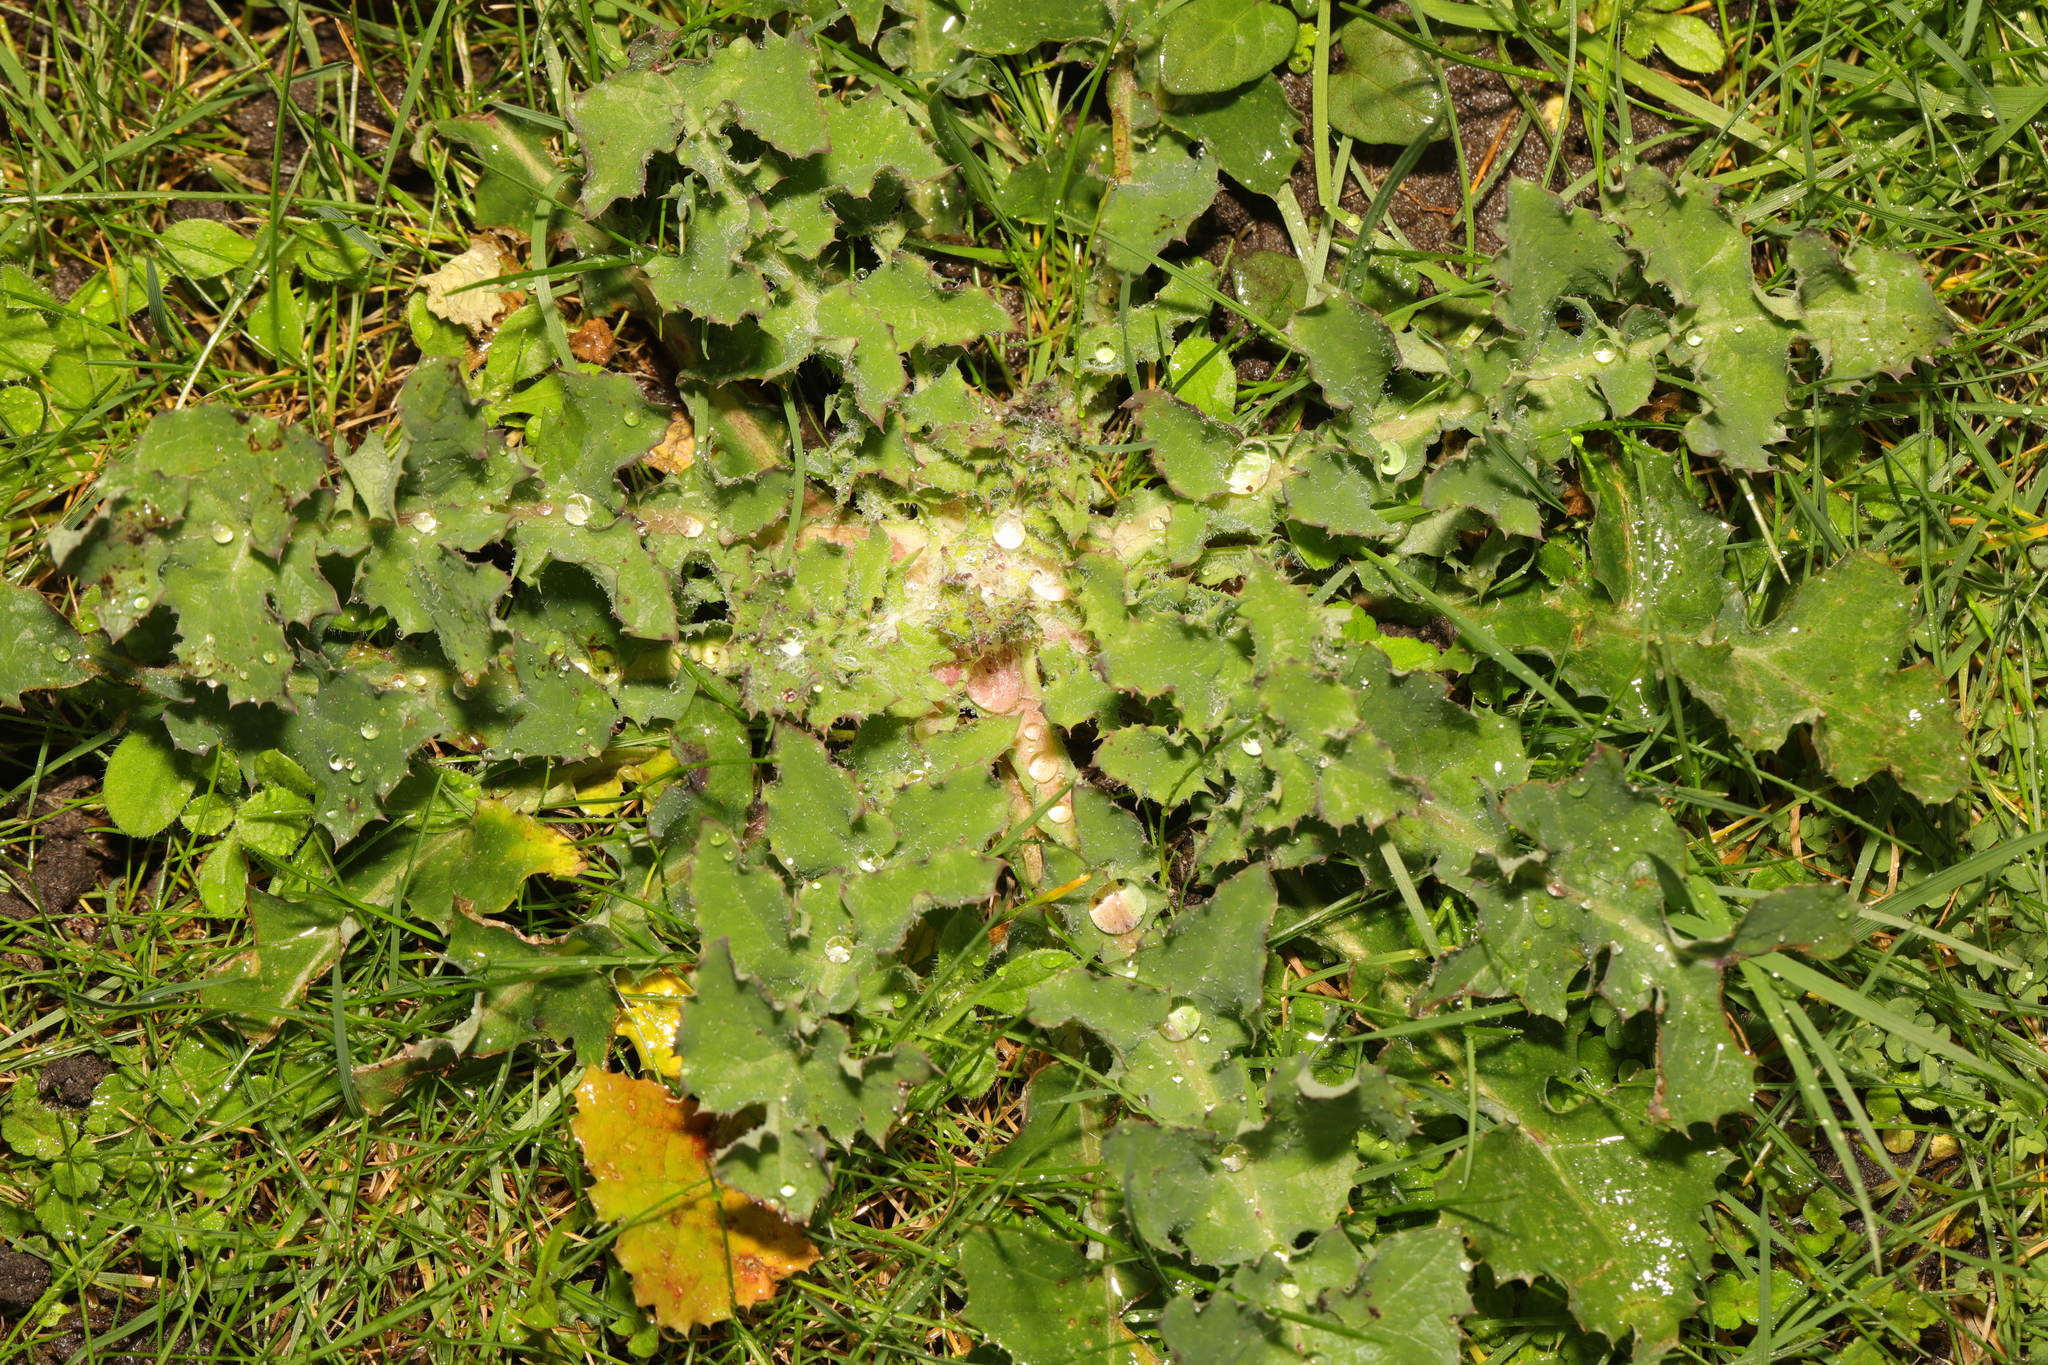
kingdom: Plantae
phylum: Tracheophyta
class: Magnoliopsida
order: Asterales
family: Asteraceae
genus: Sonchus
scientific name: Sonchus oleraceus
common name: Common sowthistle
